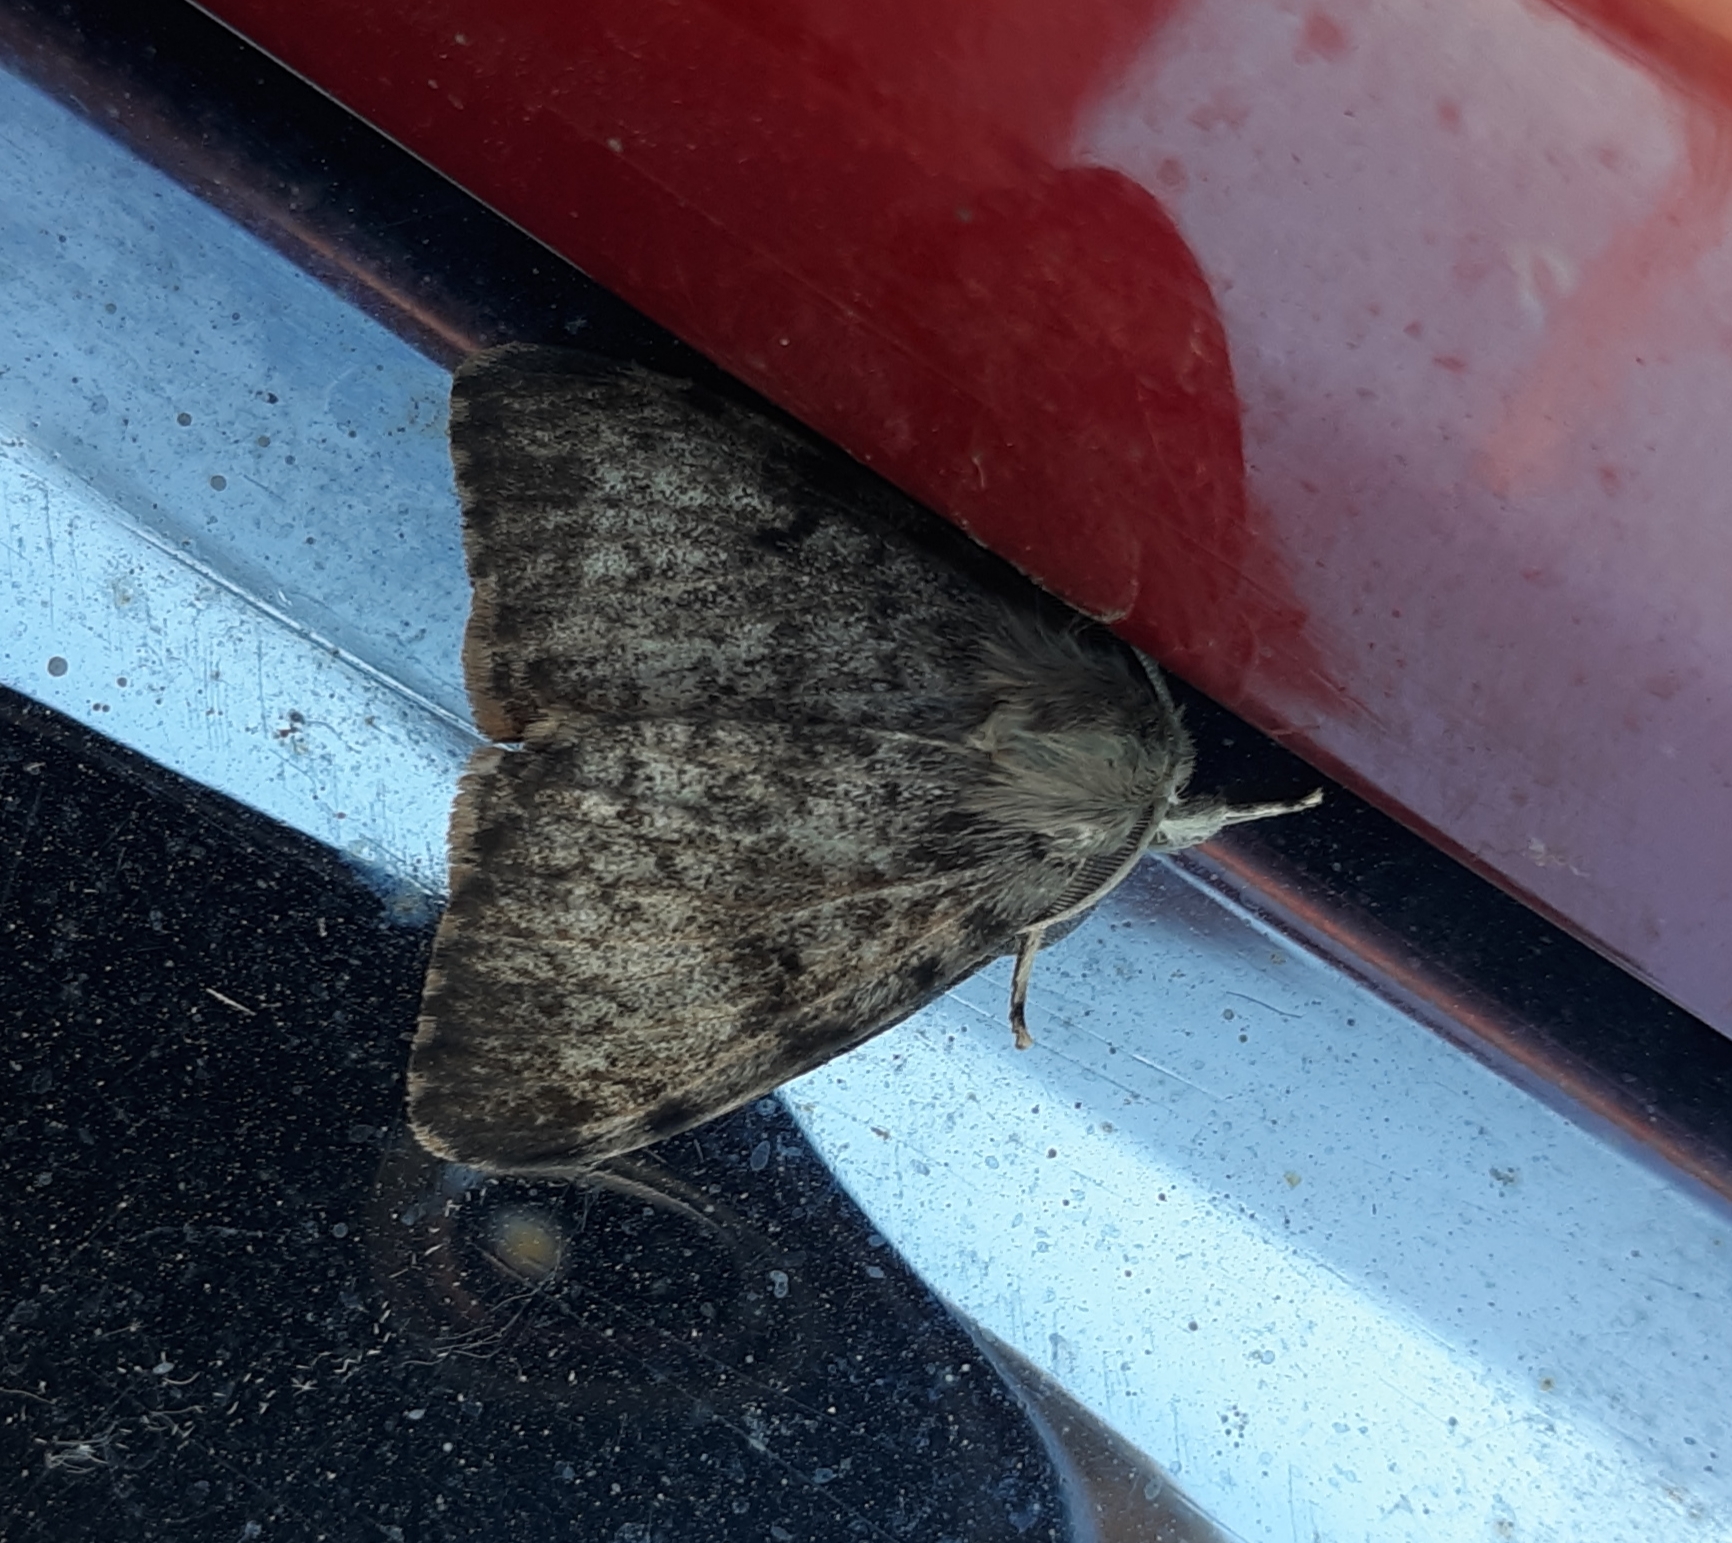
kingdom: Animalia
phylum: Arthropoda
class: Insecta
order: Lepidoptera
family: Erebidae
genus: Lymantria
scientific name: Lymantria dispar
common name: Gypsy moth
